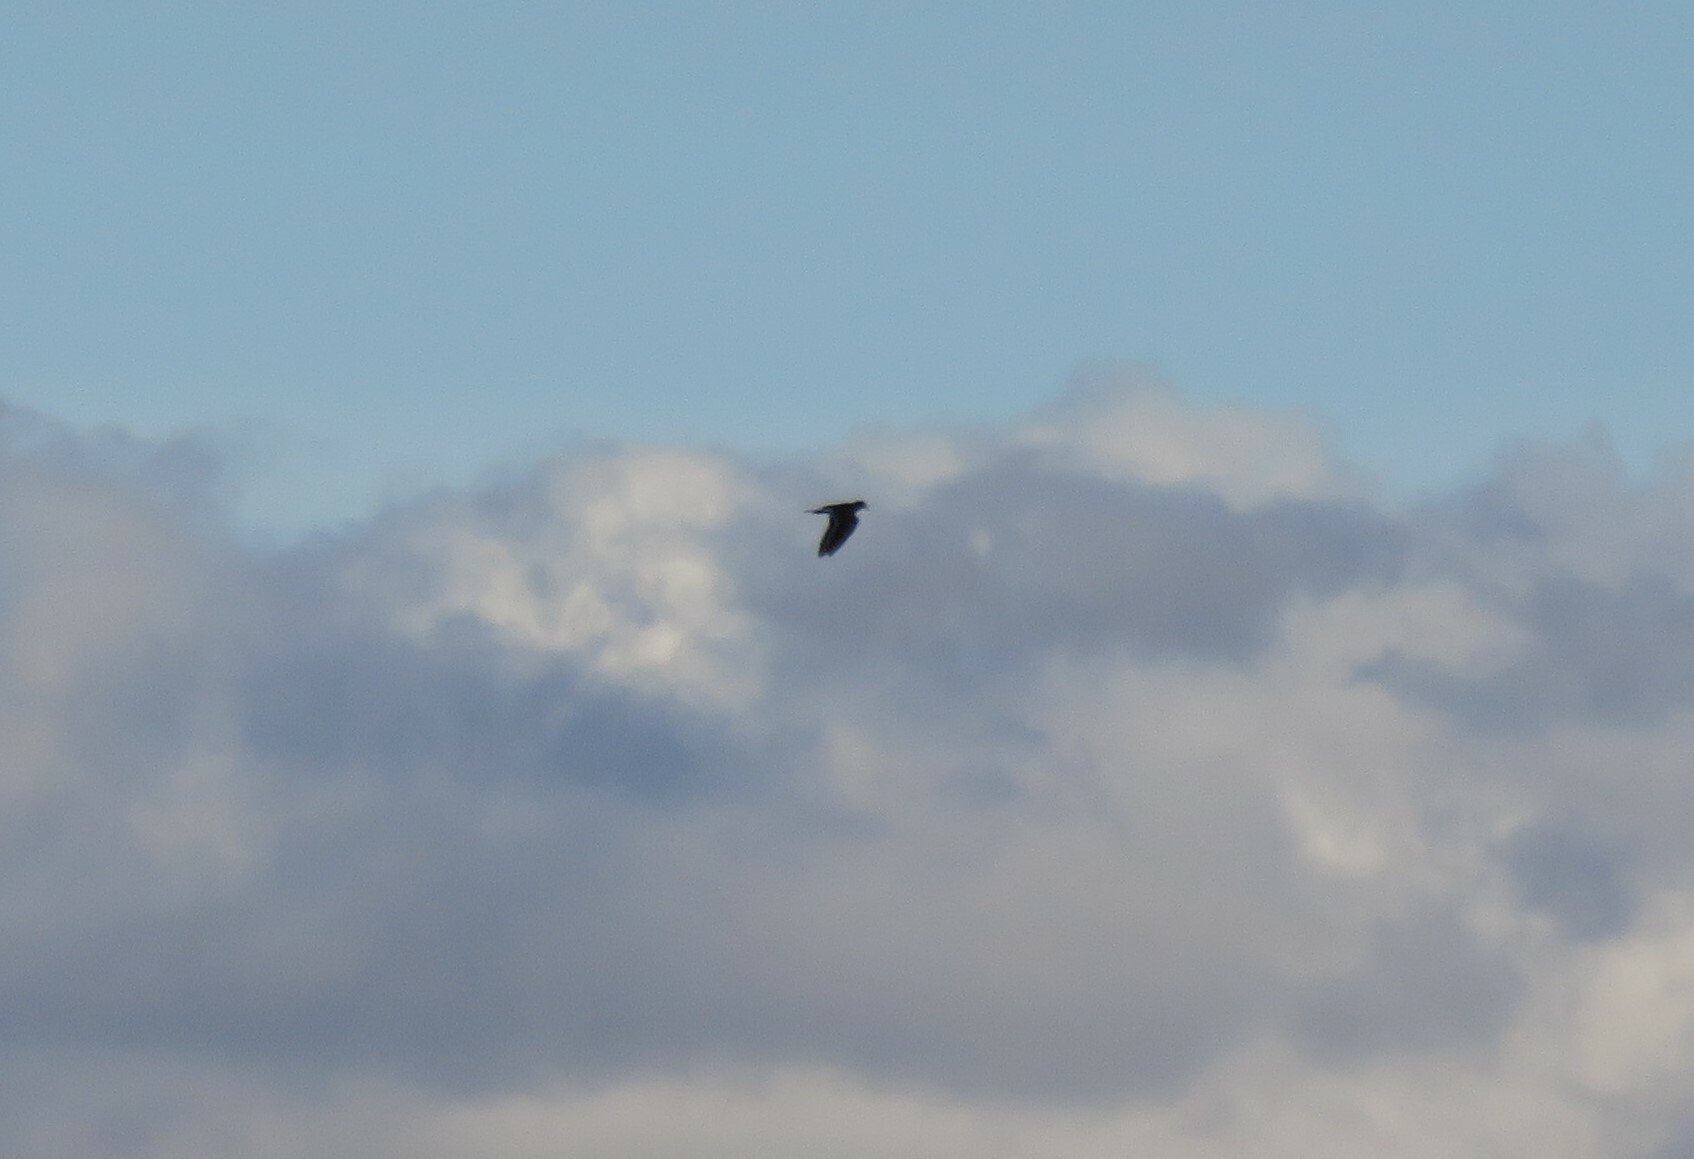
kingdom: Animalia
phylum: Chordata
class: Aves
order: Charadriiformes
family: Charadriidae
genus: Charadrius
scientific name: Charadrius vociferus
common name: Killdeer
